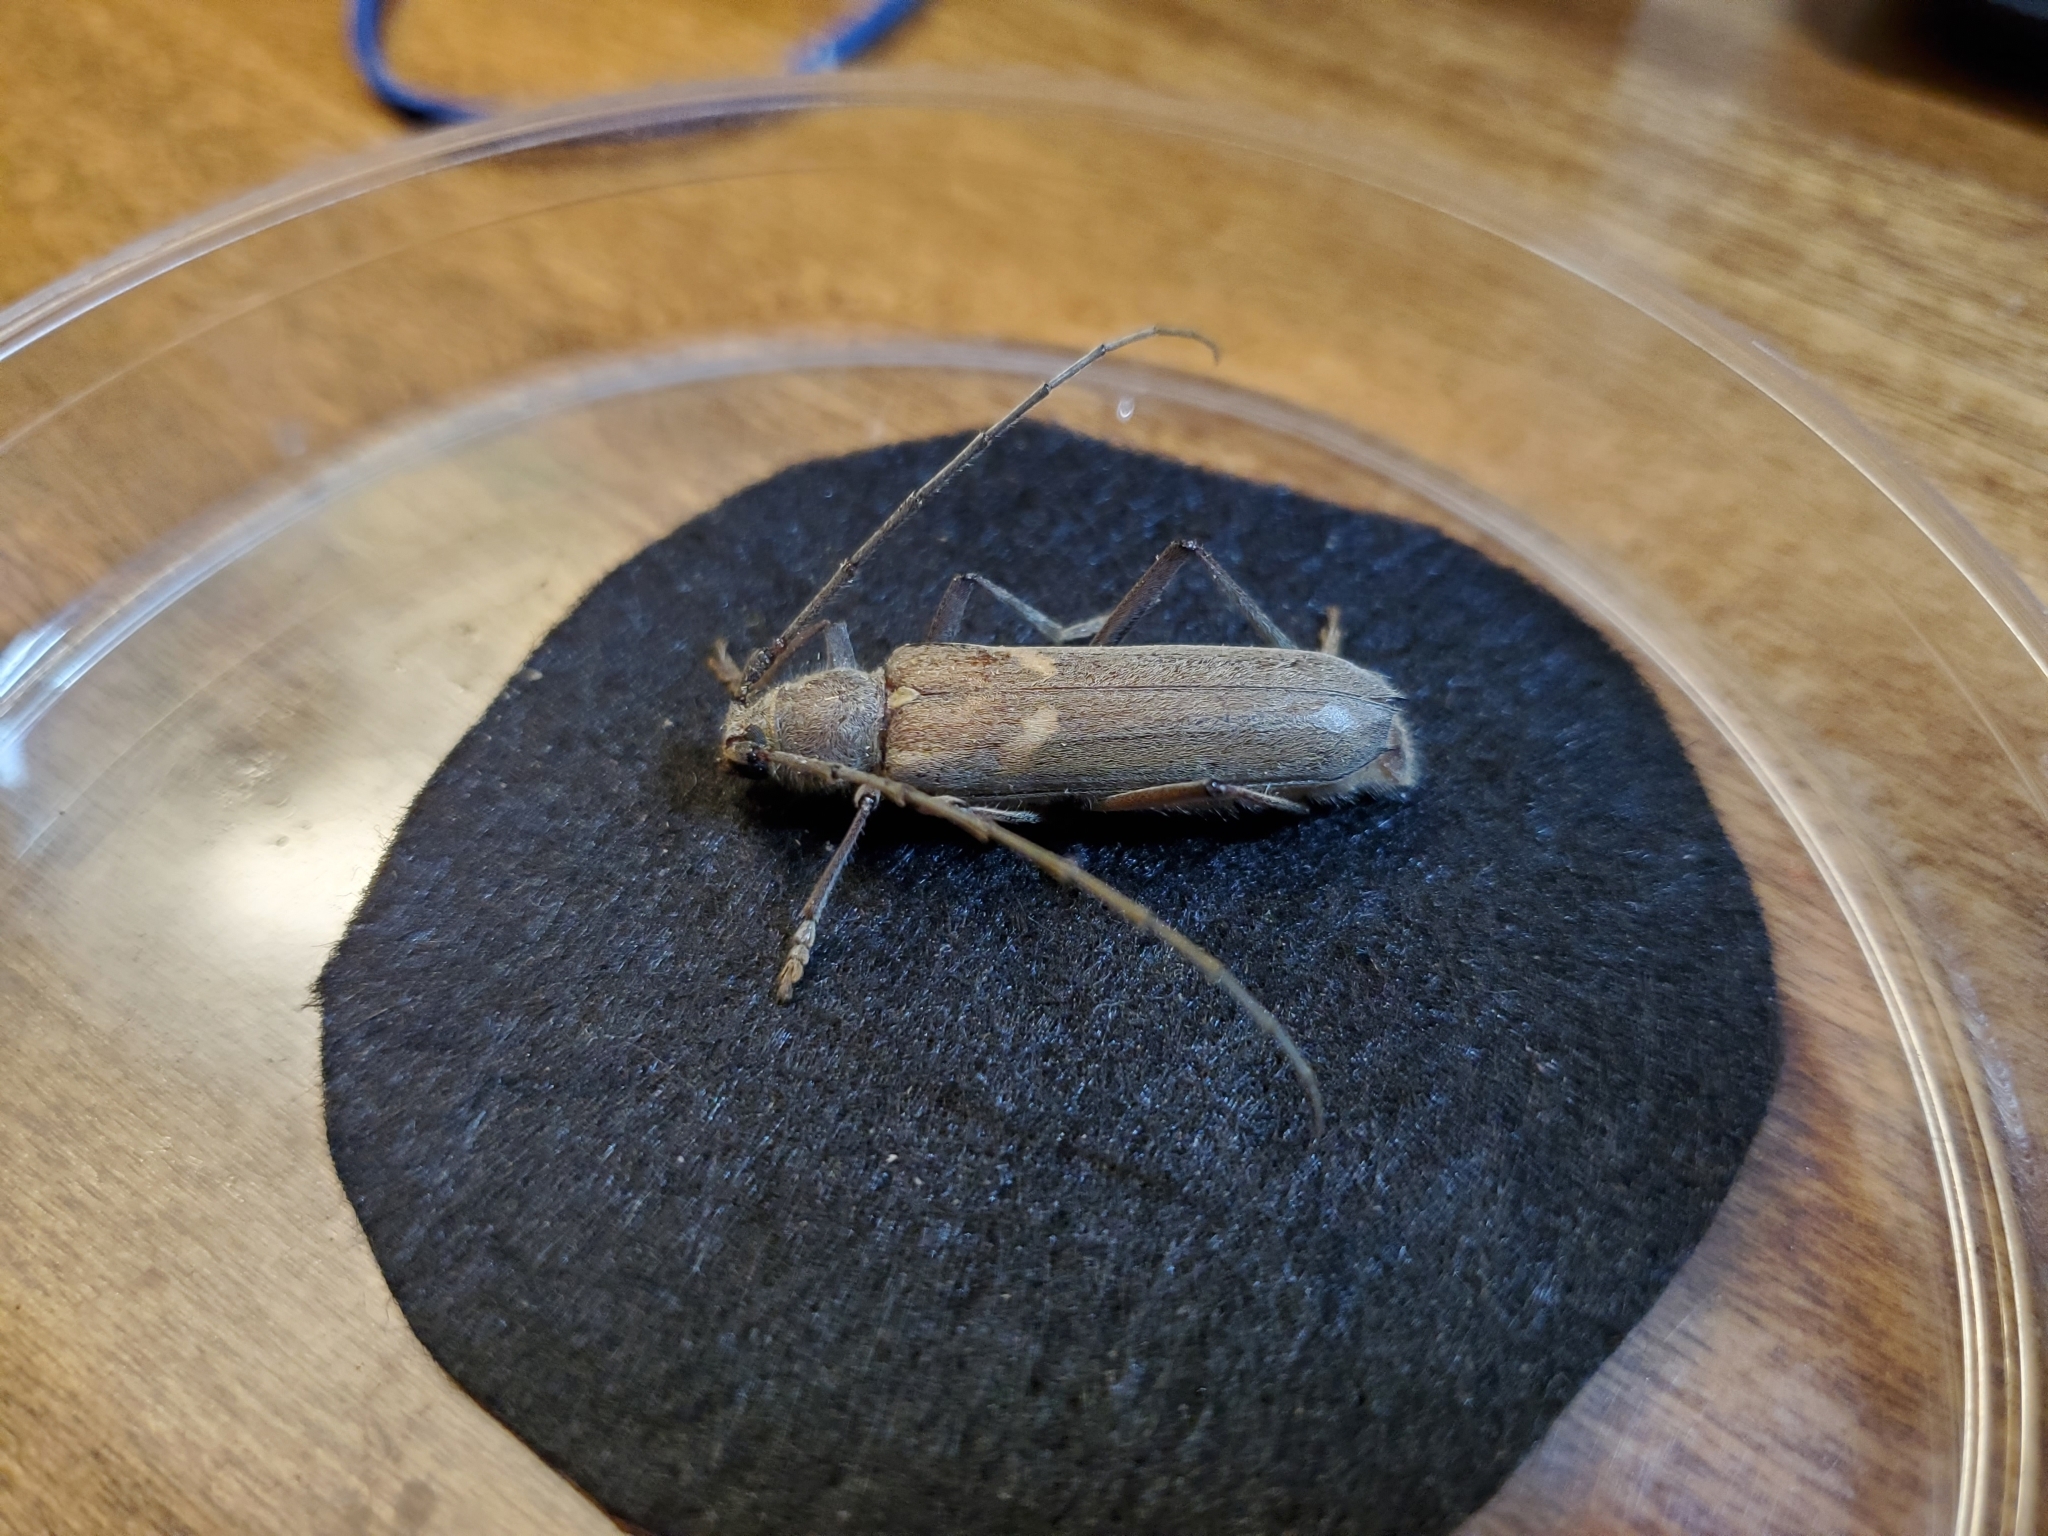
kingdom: Animalia
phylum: Arthropoda
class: Insecta
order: Coleoptera
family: Cerambycidae
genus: Knulliana
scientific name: Knulliana cincta
